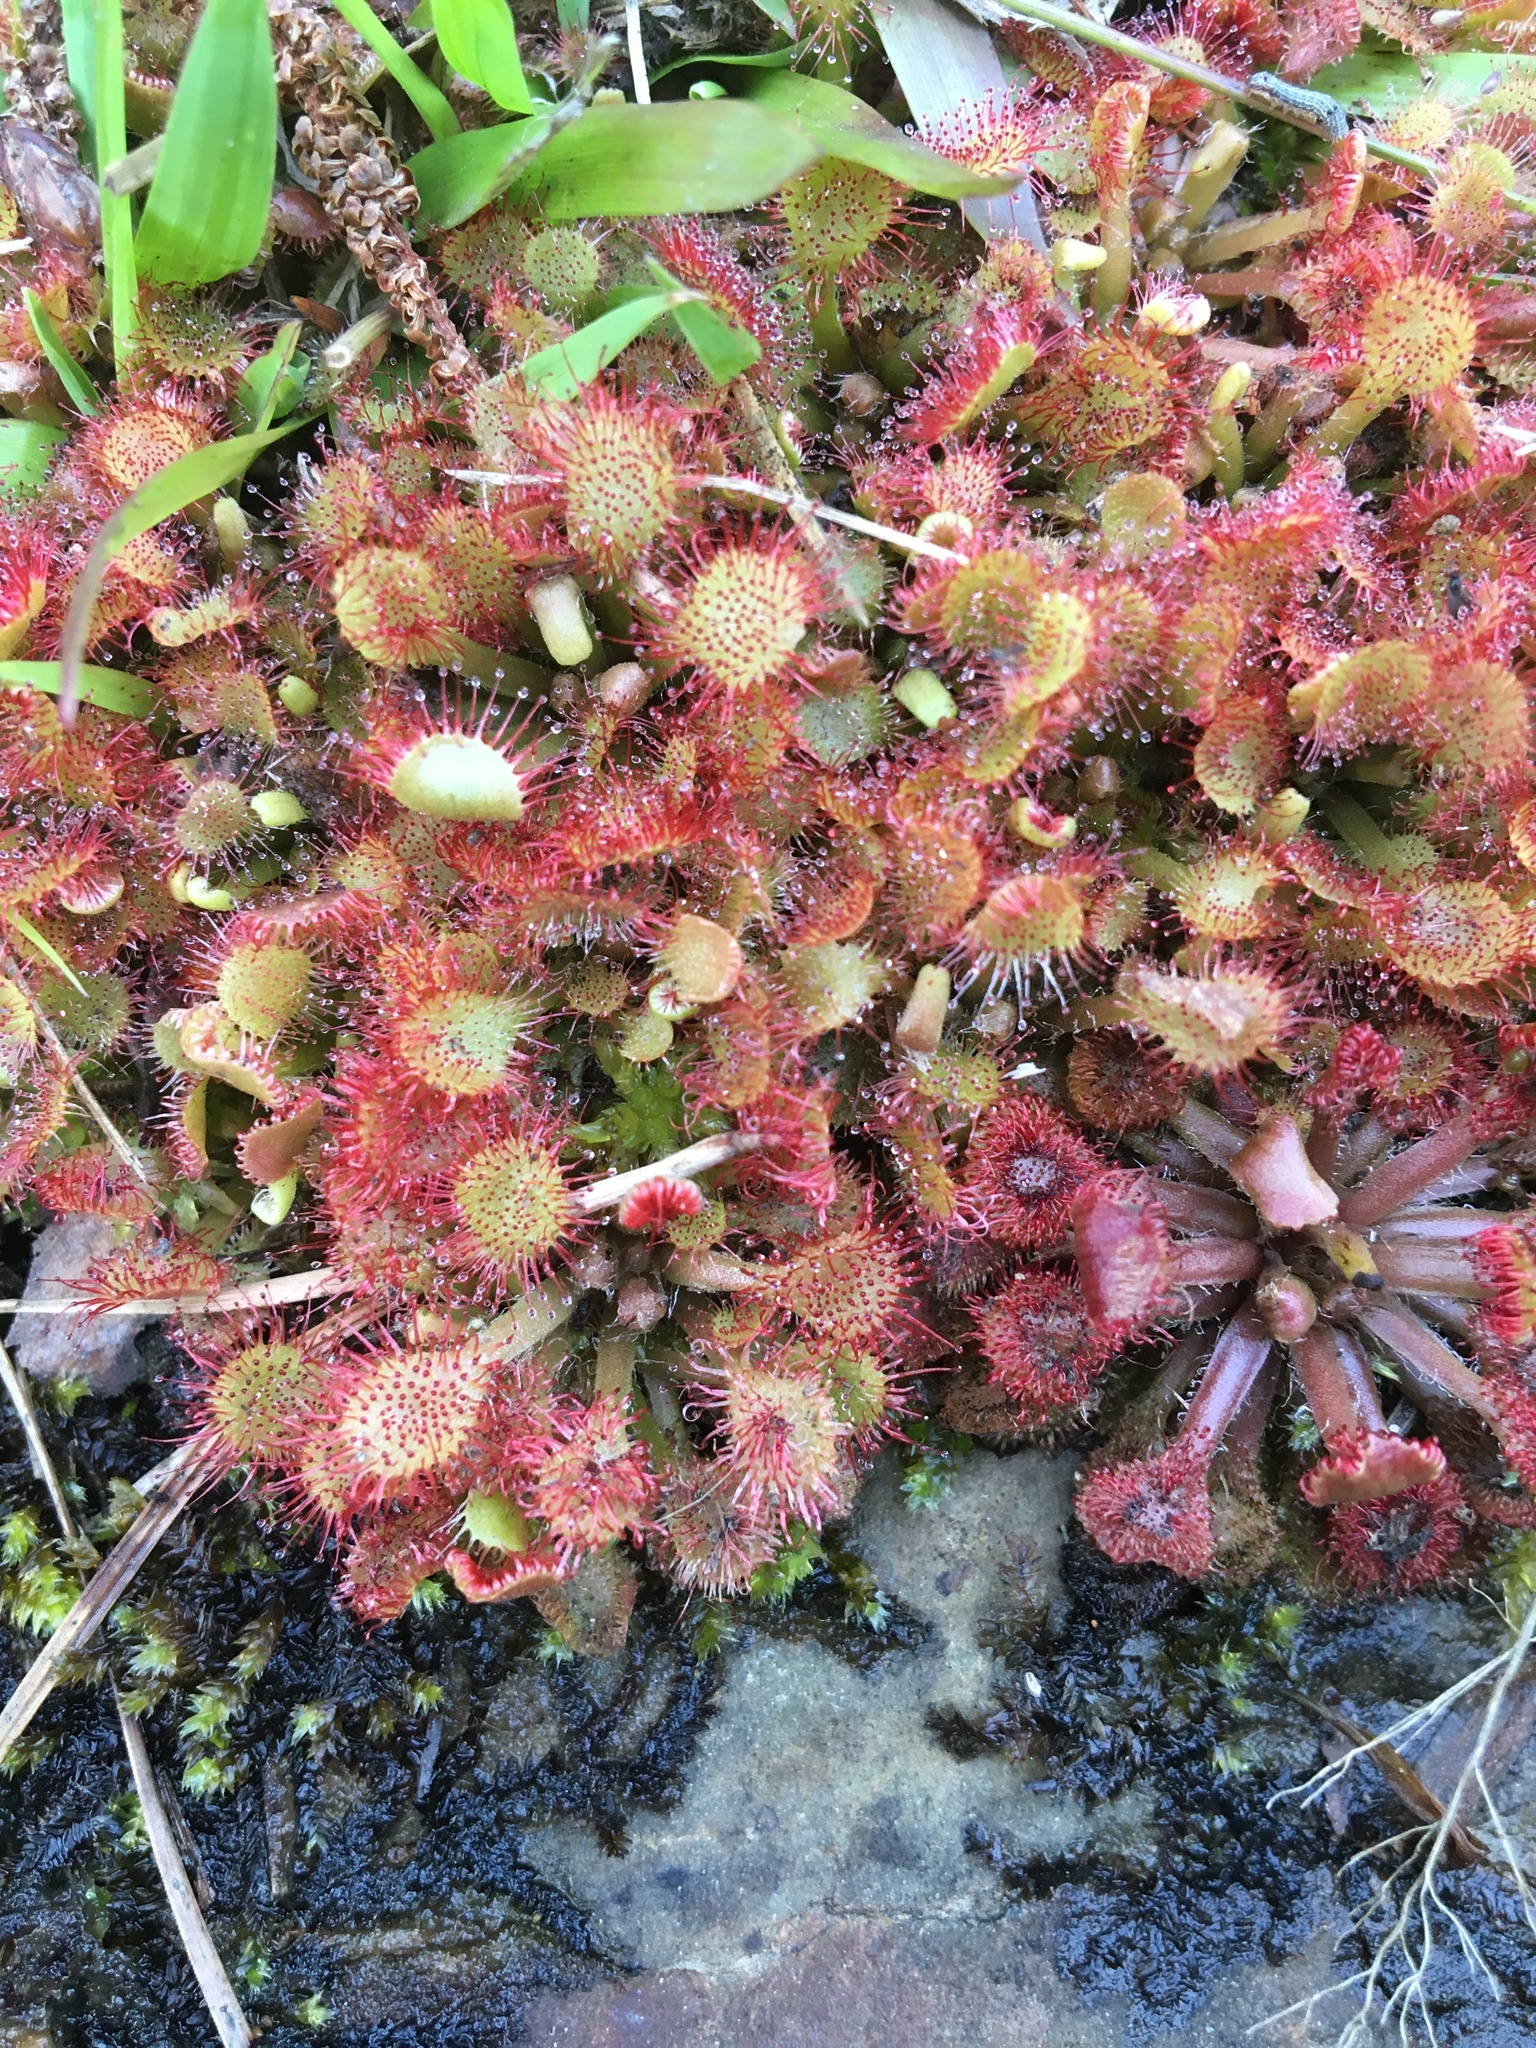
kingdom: Plantae
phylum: Tracheophyta
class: Magnoliopsida
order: Caryophyllales
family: Droseraceae
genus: Drosera
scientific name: Drosera capillaris
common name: Pink sundew
